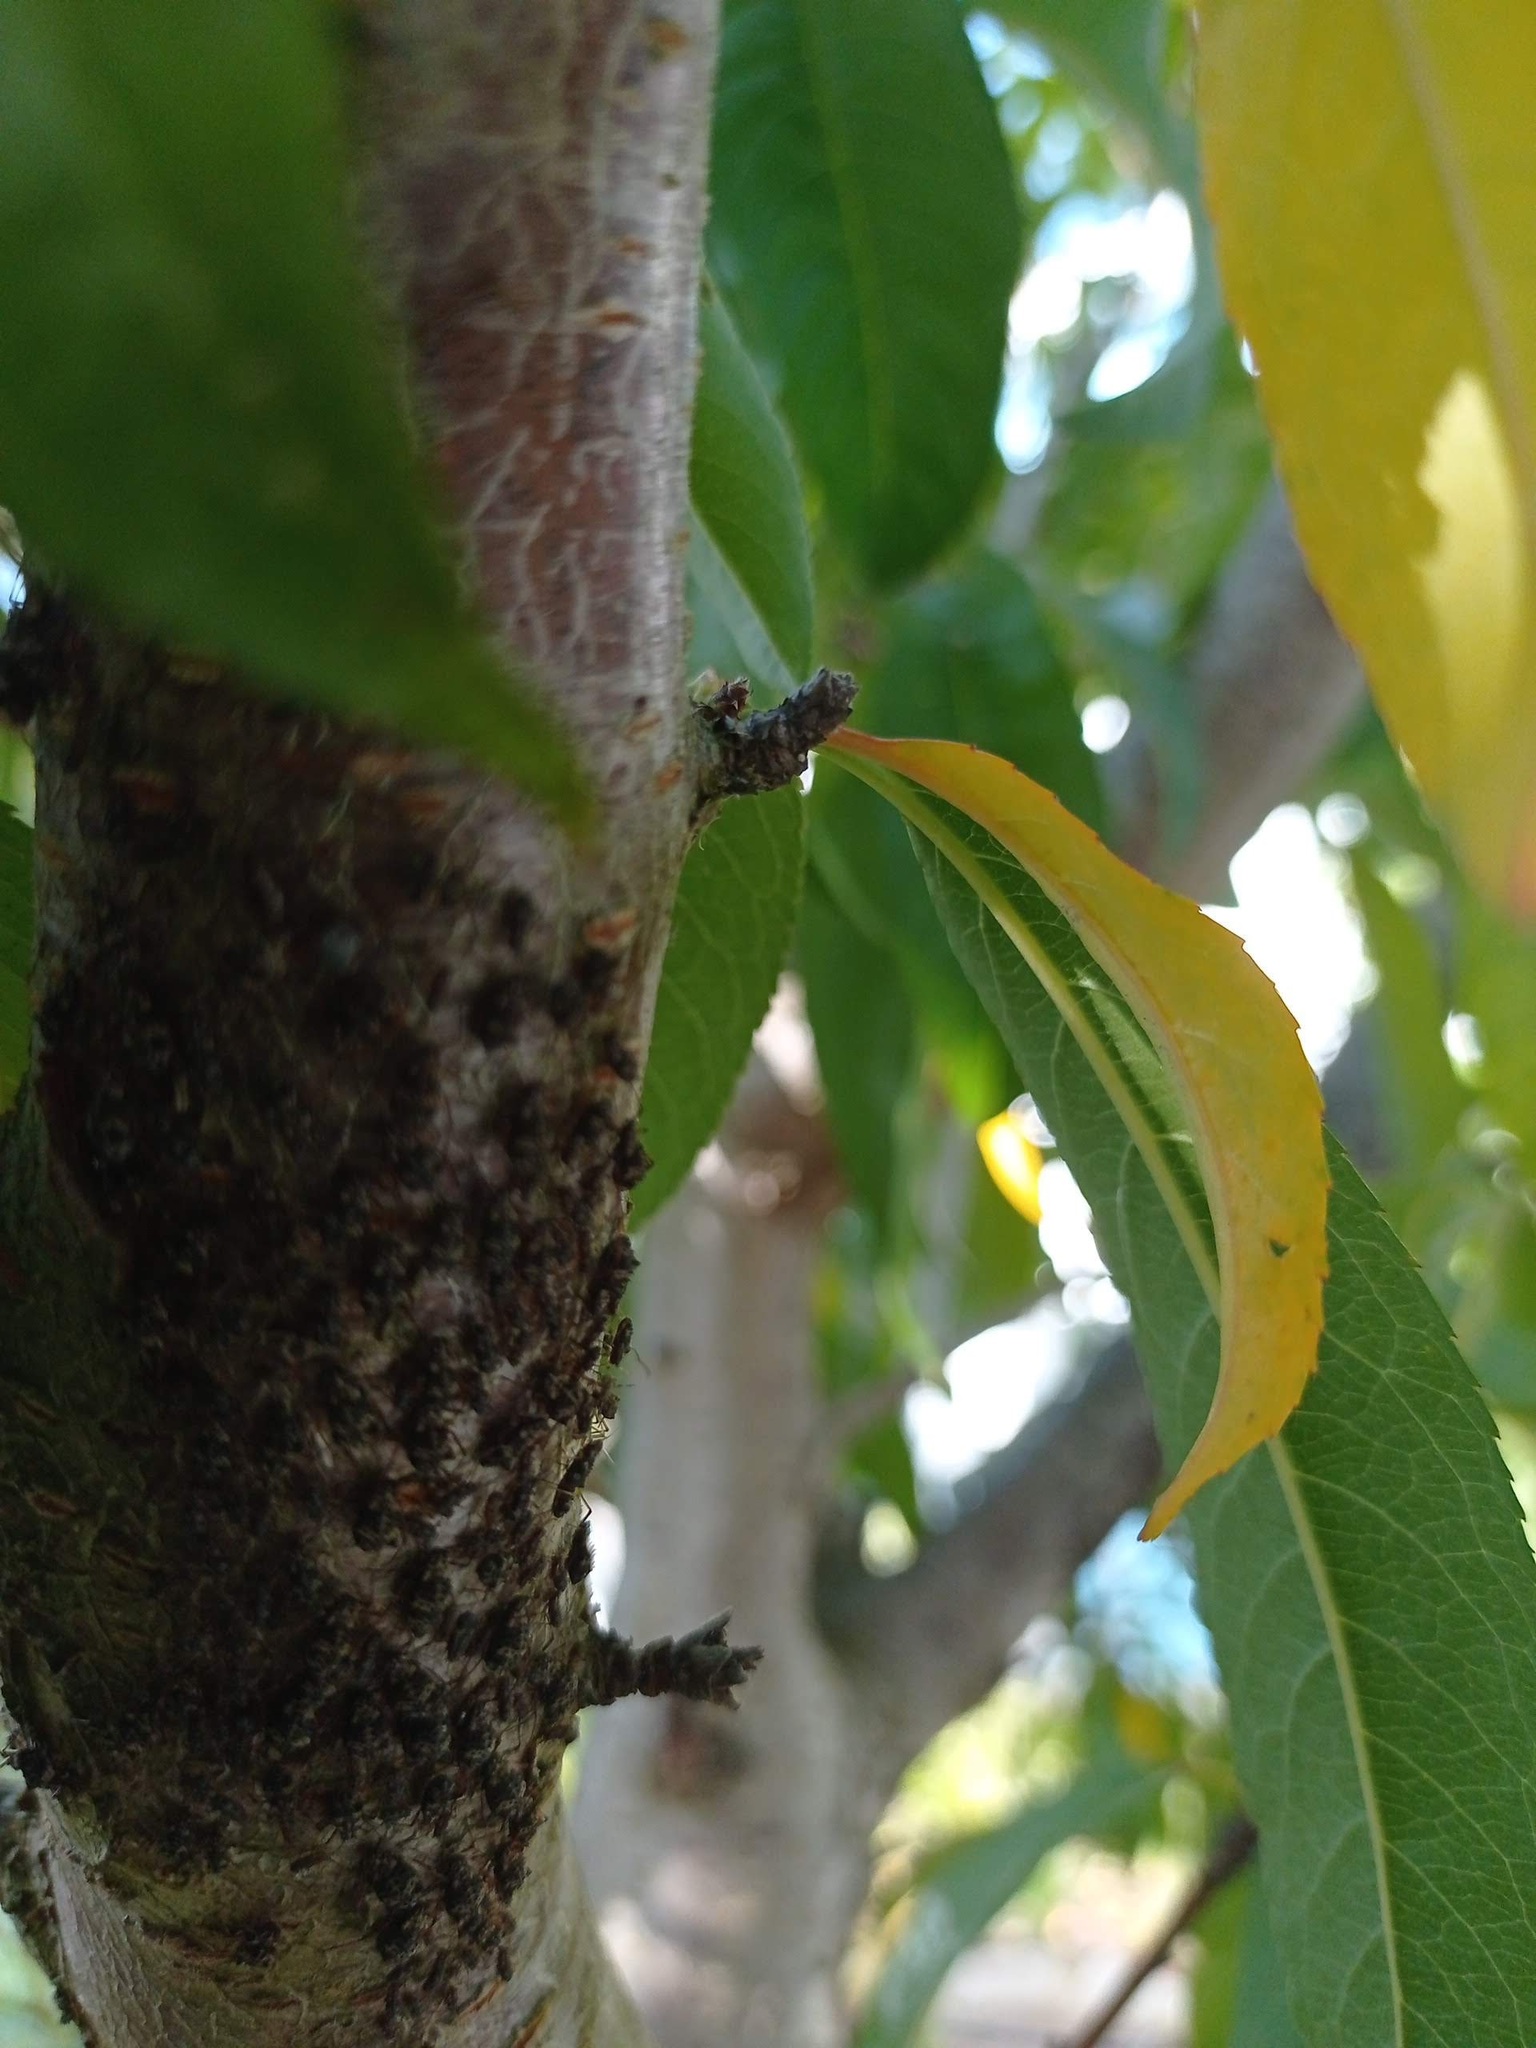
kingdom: Animalia
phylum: Arthropoda
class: Insecta
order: Hemiptera
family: Aphididae
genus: Pterochloroides
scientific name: Pterochloroides persicae
